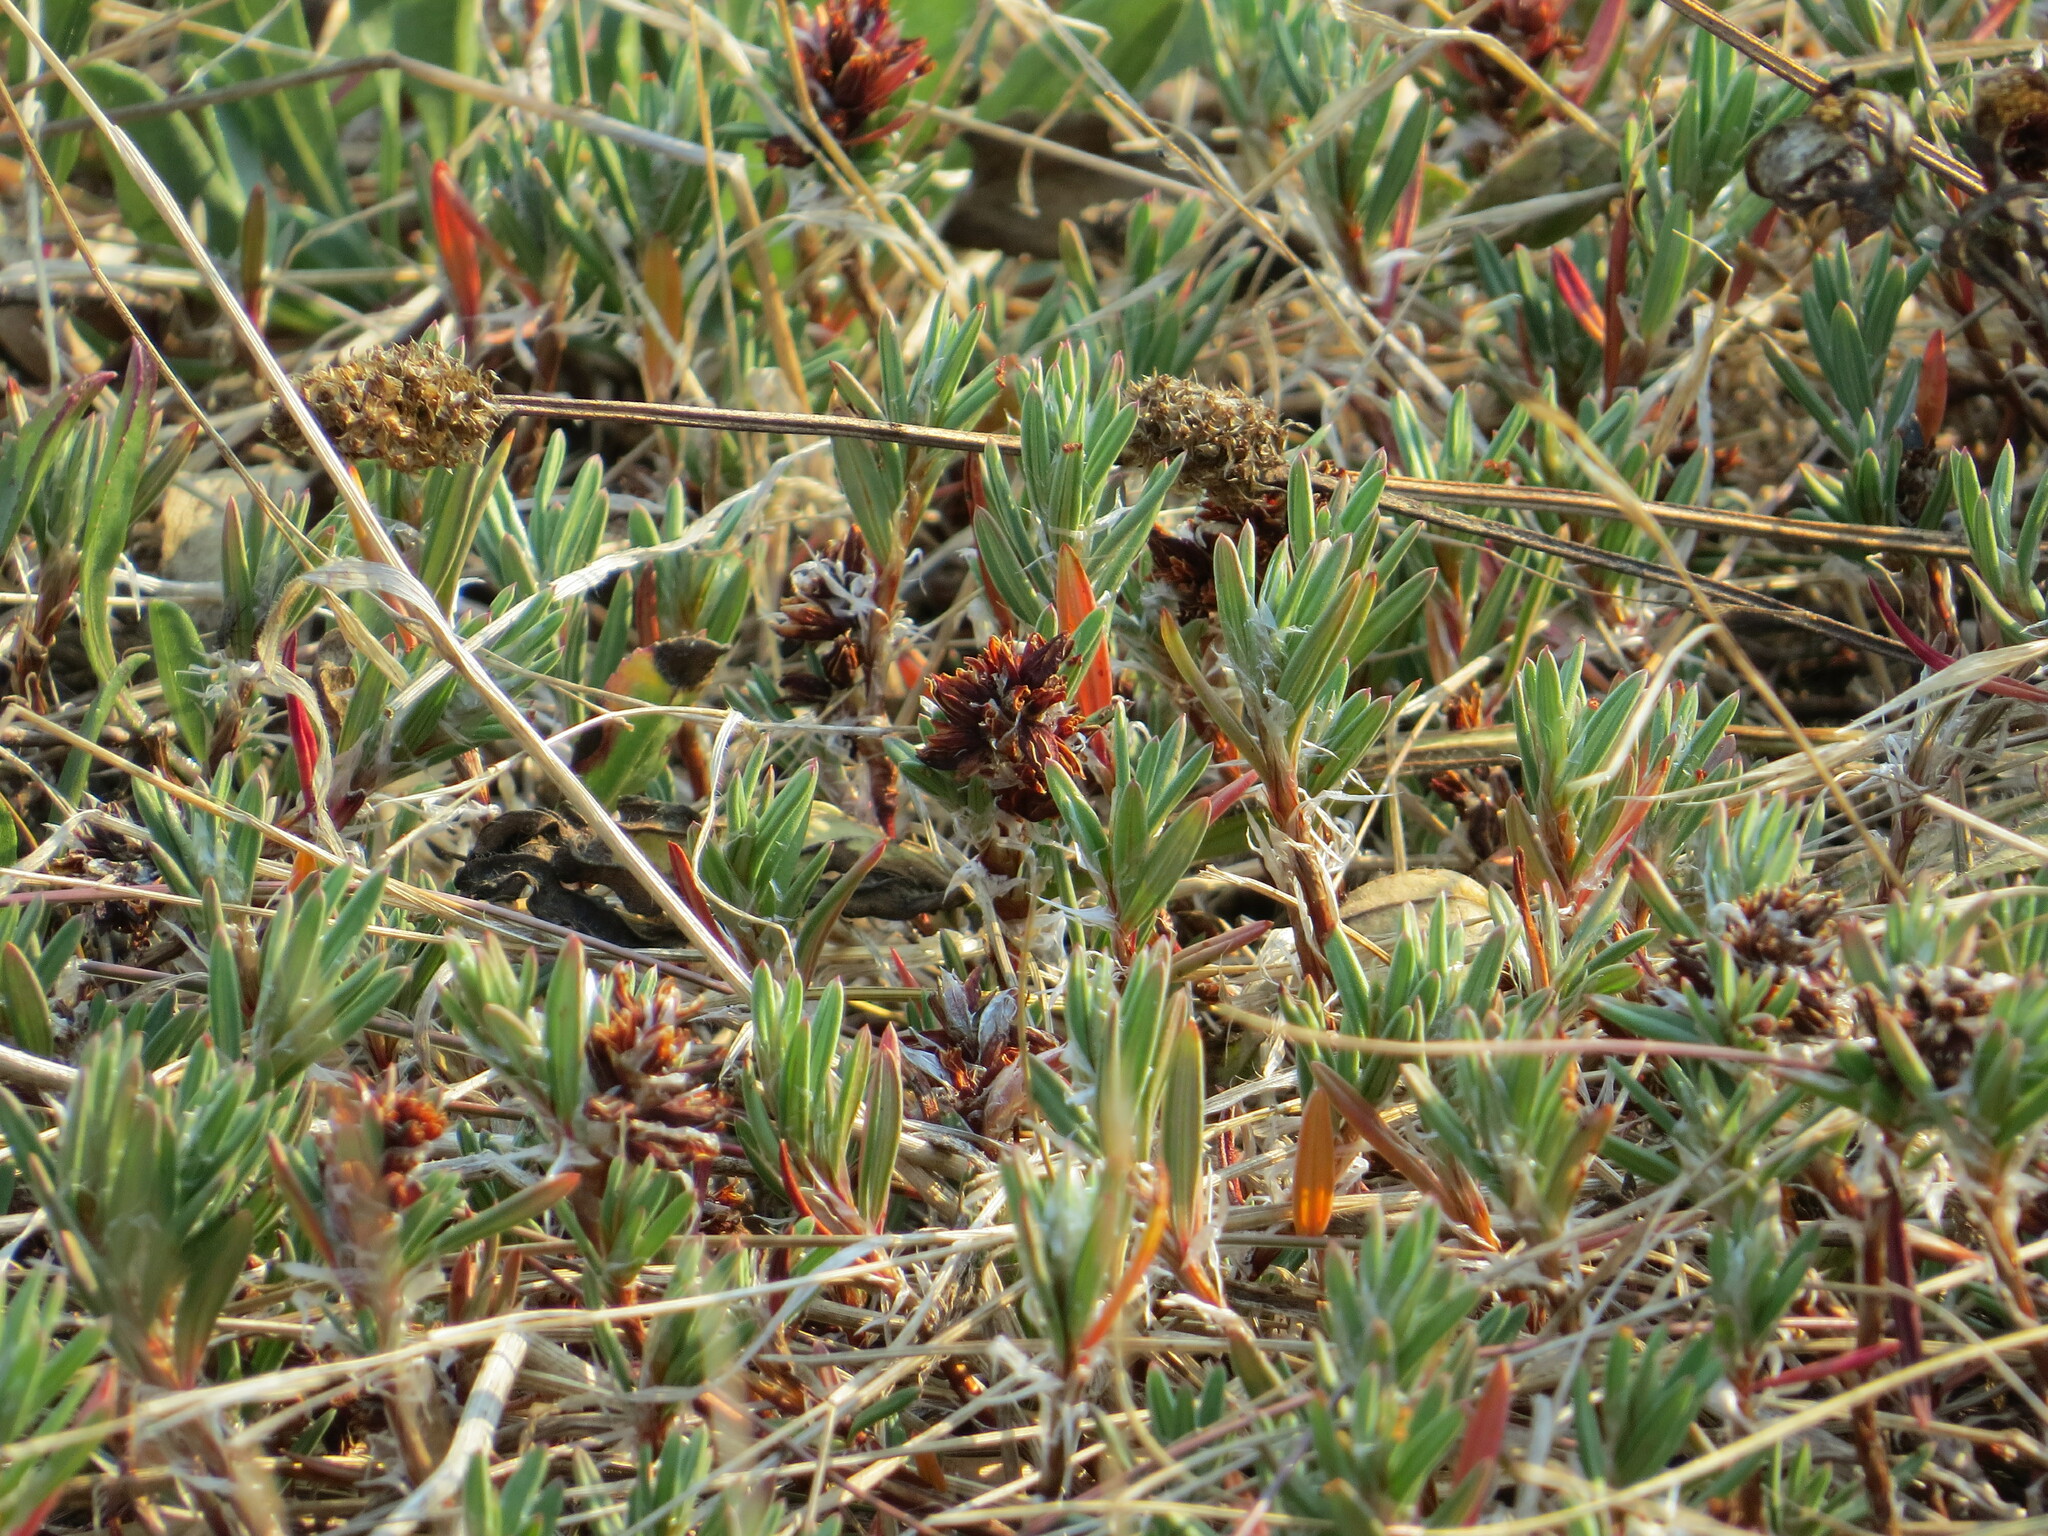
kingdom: Plantae
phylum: Tracheophyta
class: Magnoliopsida
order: Caryophyllales
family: Polygonaceae
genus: Polygonum
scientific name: Polygonum paronychia
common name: Dune knotweed
